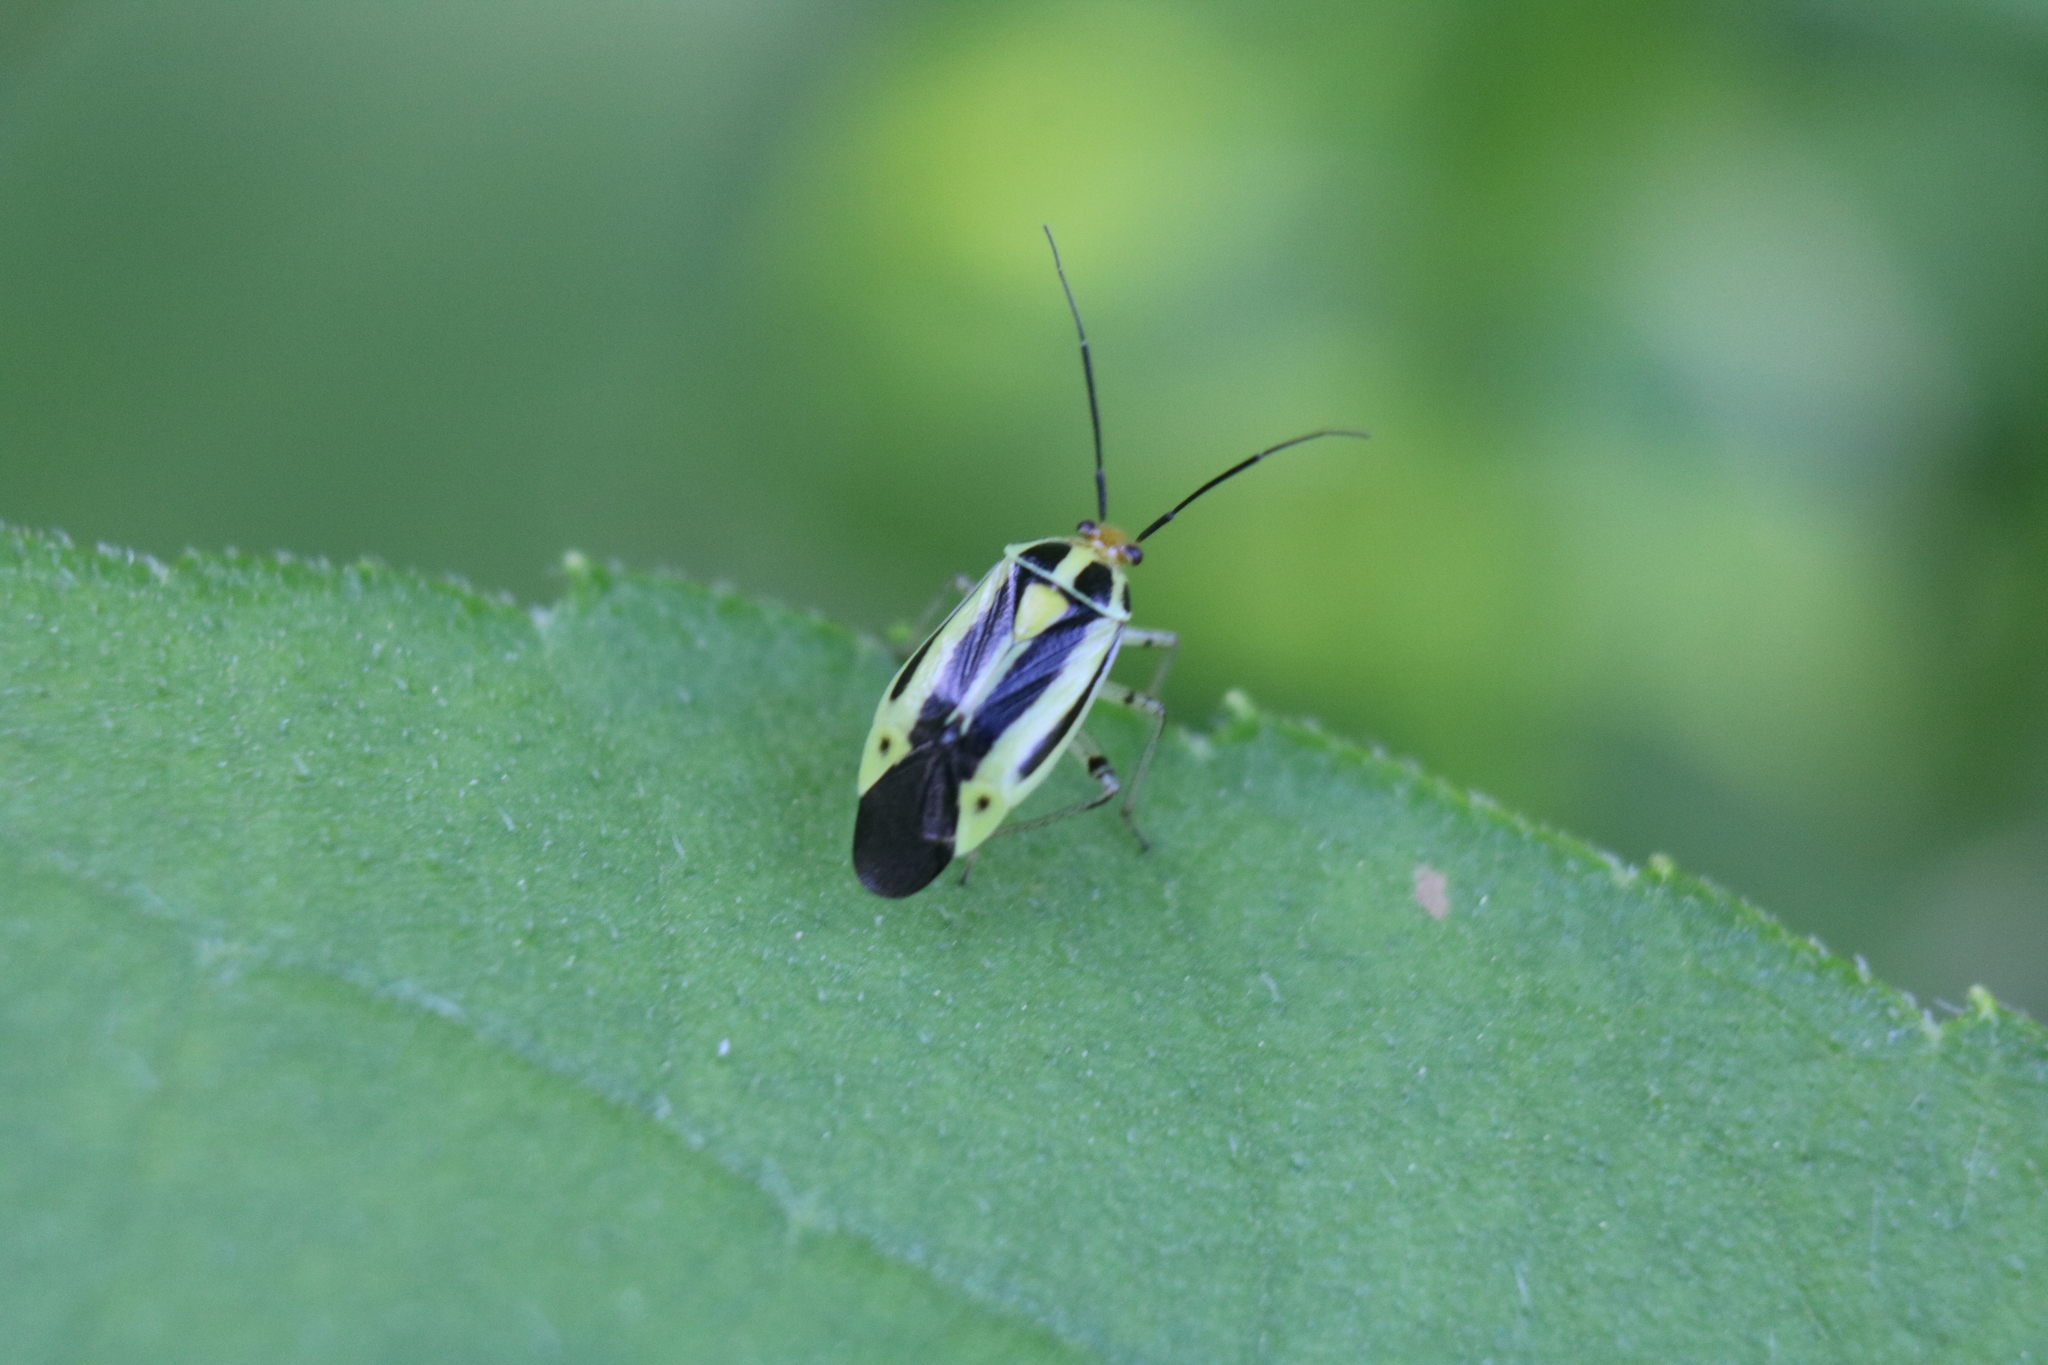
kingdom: Animalia
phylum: Arthropoda
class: Insecta
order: Hemiptera
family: Miridae
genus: Poecilocapsus
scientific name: Poecilocapsus lineatus
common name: Four-lined plant bug
